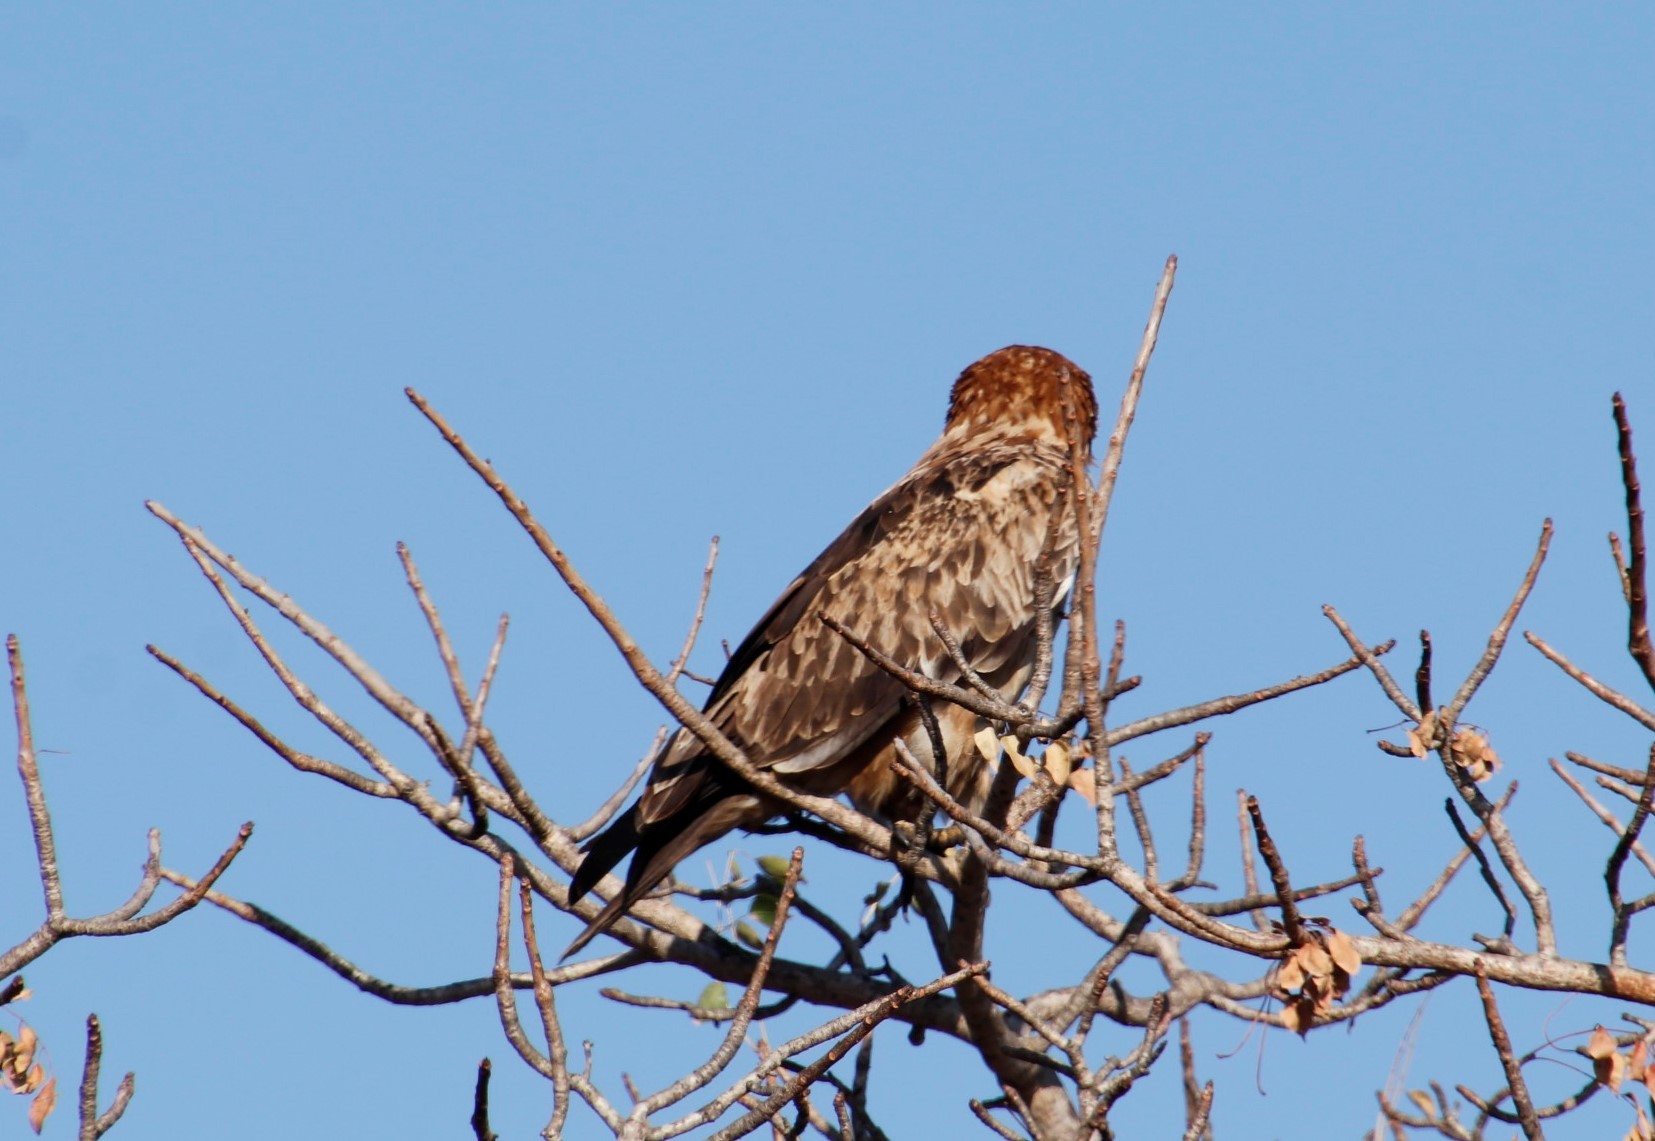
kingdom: Animalia
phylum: Chordata
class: Aves
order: Accipitriformes
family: Accipitridae
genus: Aquila
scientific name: Aquila rapax
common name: Tawny eagle
